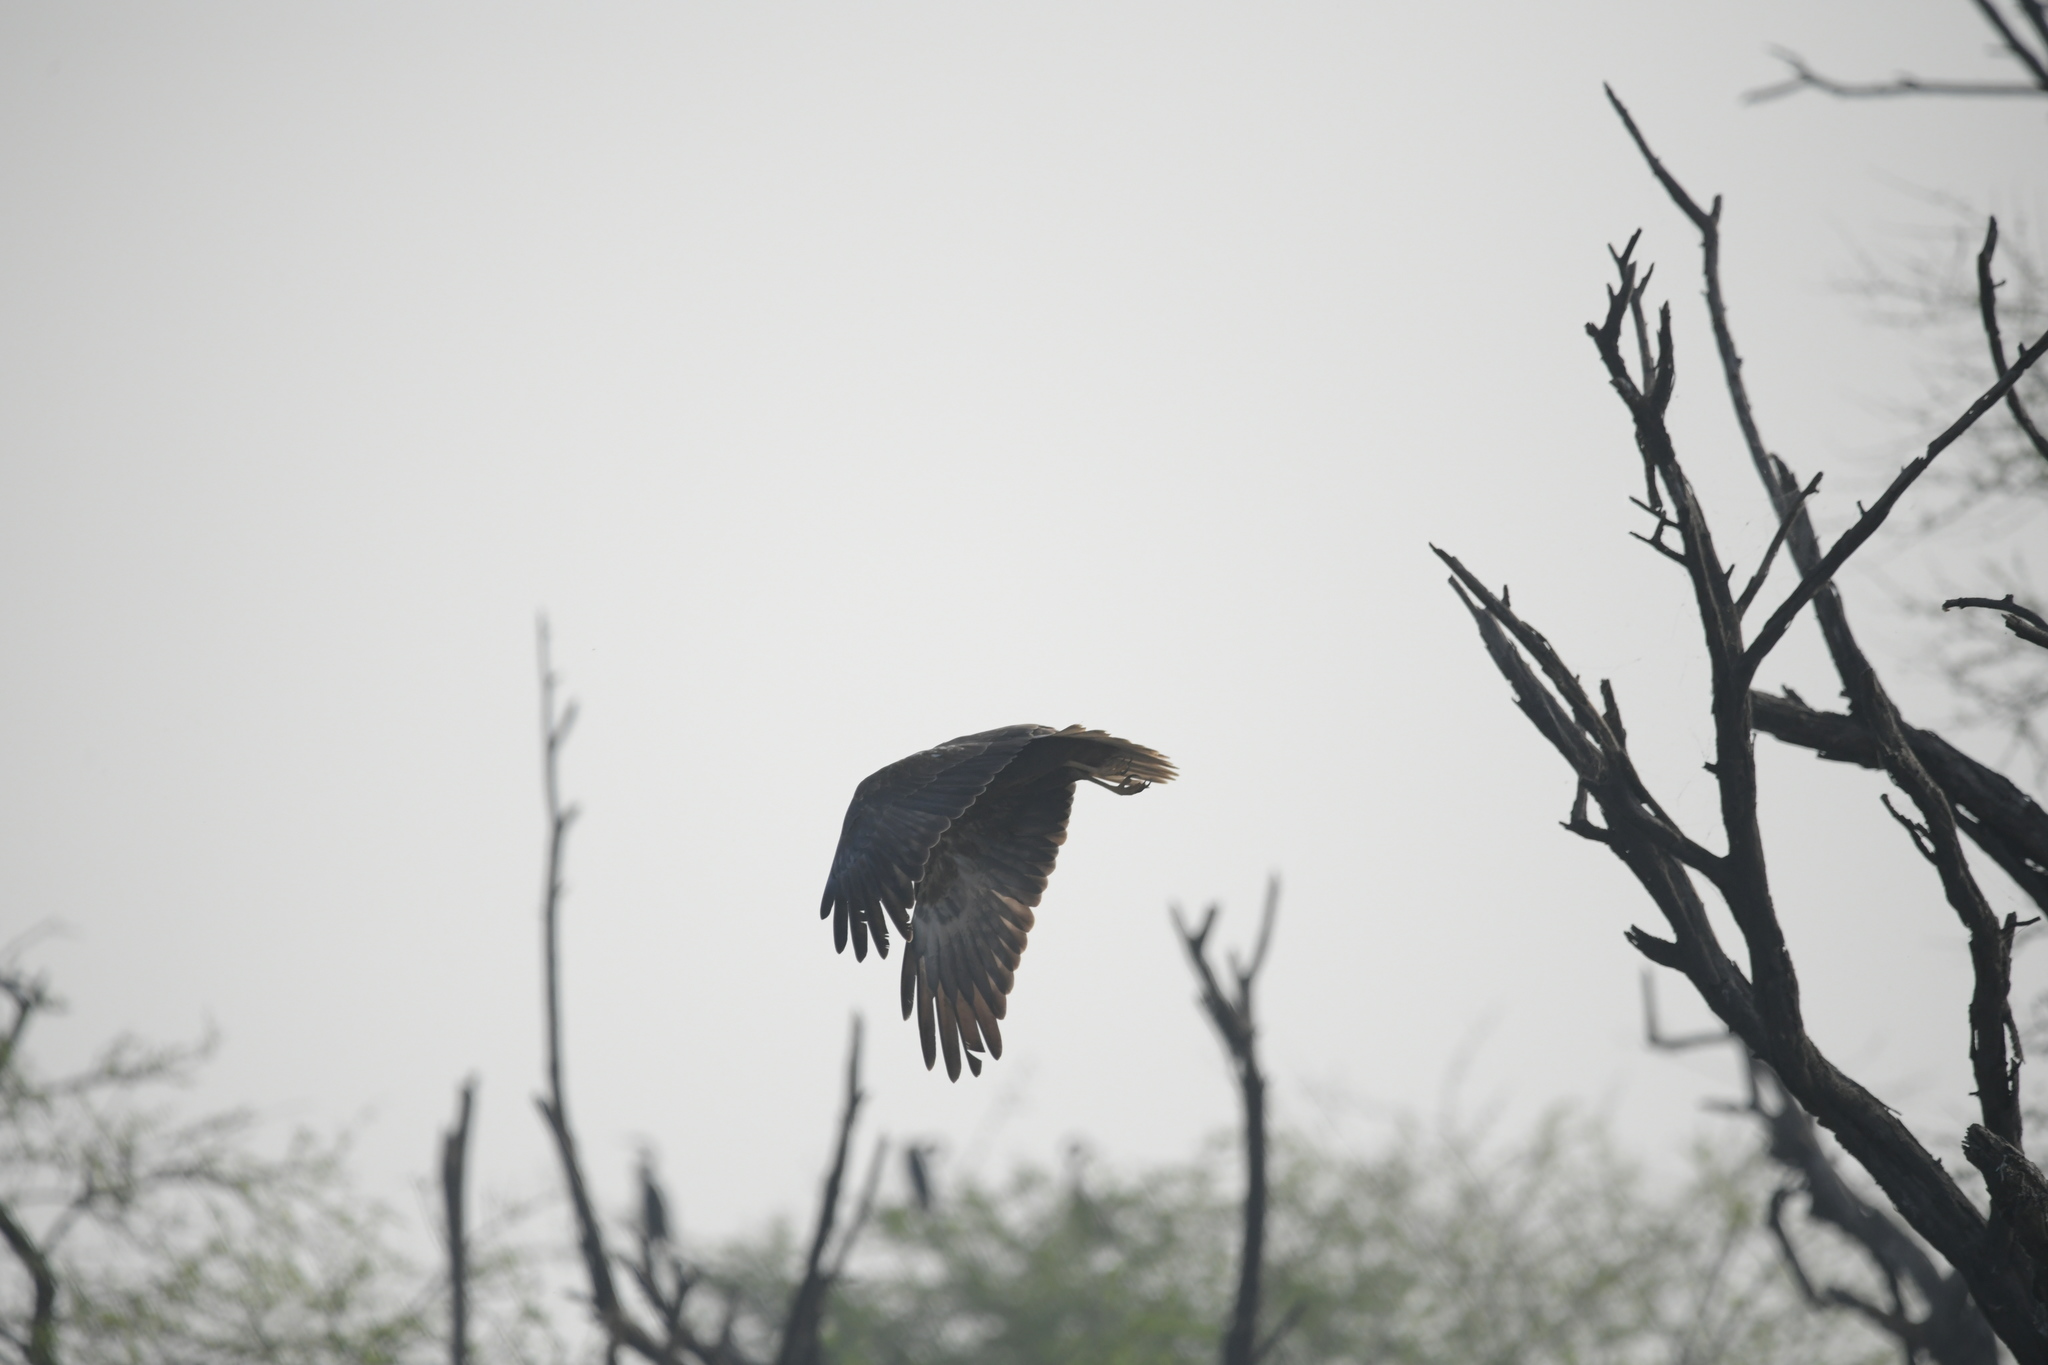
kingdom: Animalia
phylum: Chordata
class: Aves
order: Accipitriformes
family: Accipitridae
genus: Circus
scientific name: Circus aeruginosus
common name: Western marsh harrier
